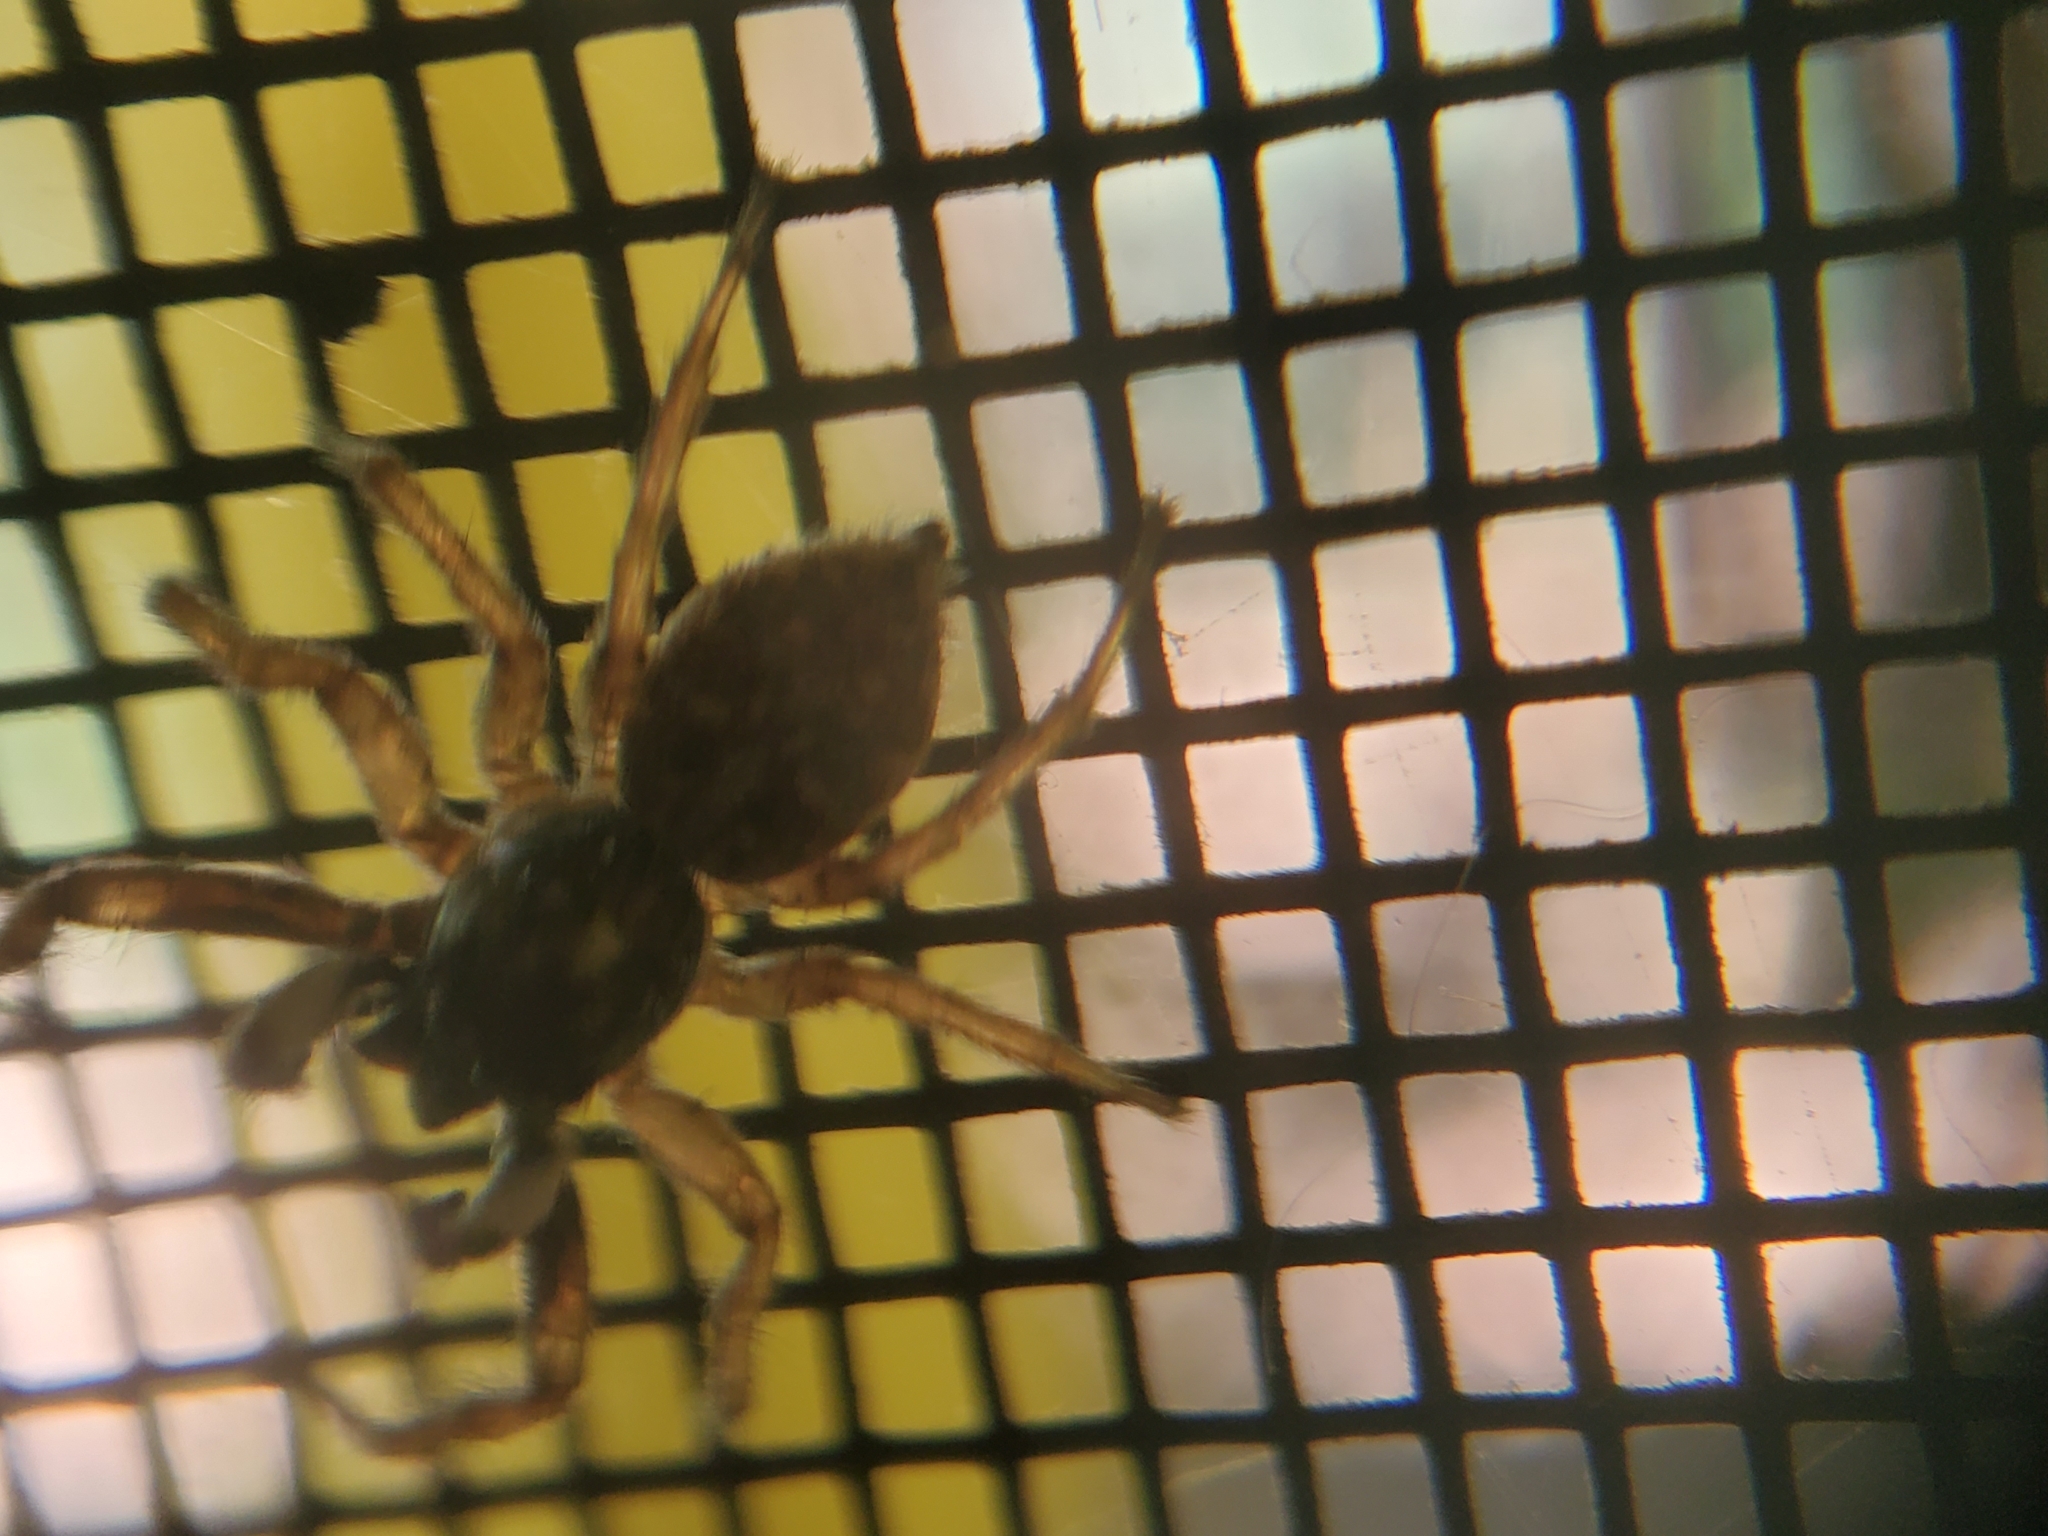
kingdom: Animalia
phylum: Arthropoda
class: Arachnida
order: Araneae
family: Salticidae
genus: Menemerus
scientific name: Menemerus semilimbatus
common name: Jumping spider
